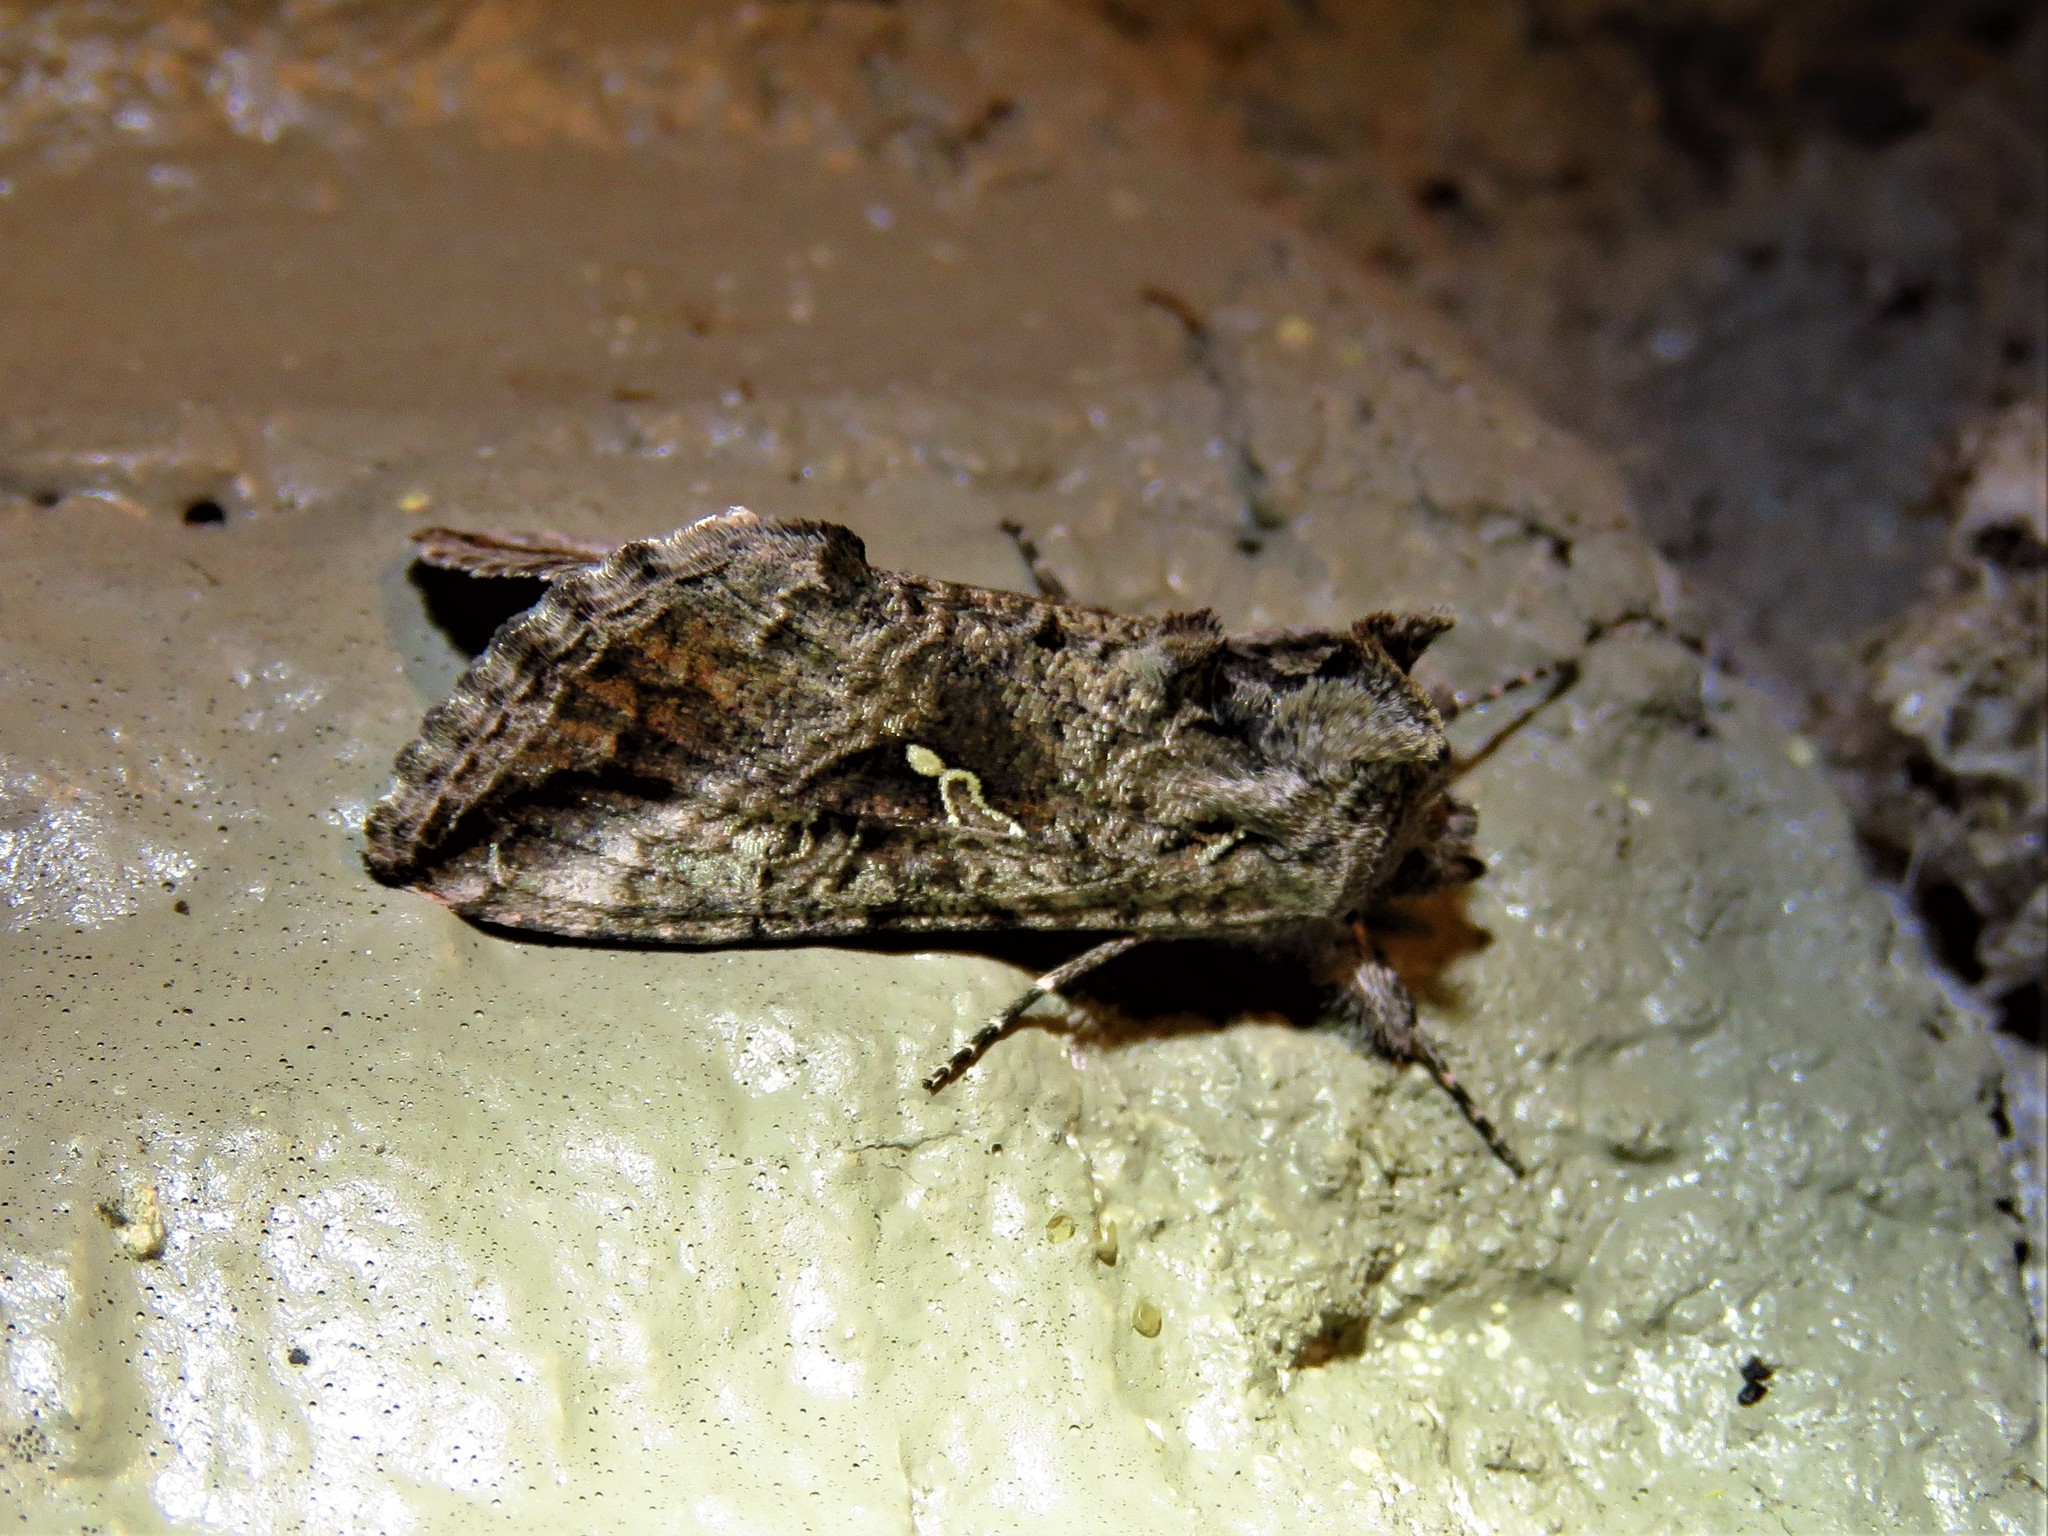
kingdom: Animalia
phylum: Arthropoda
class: Insecta
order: Lepidoptera
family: Noctuidae
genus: Rachiplusia
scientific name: Rachiplusia ou
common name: Gray looper moth
